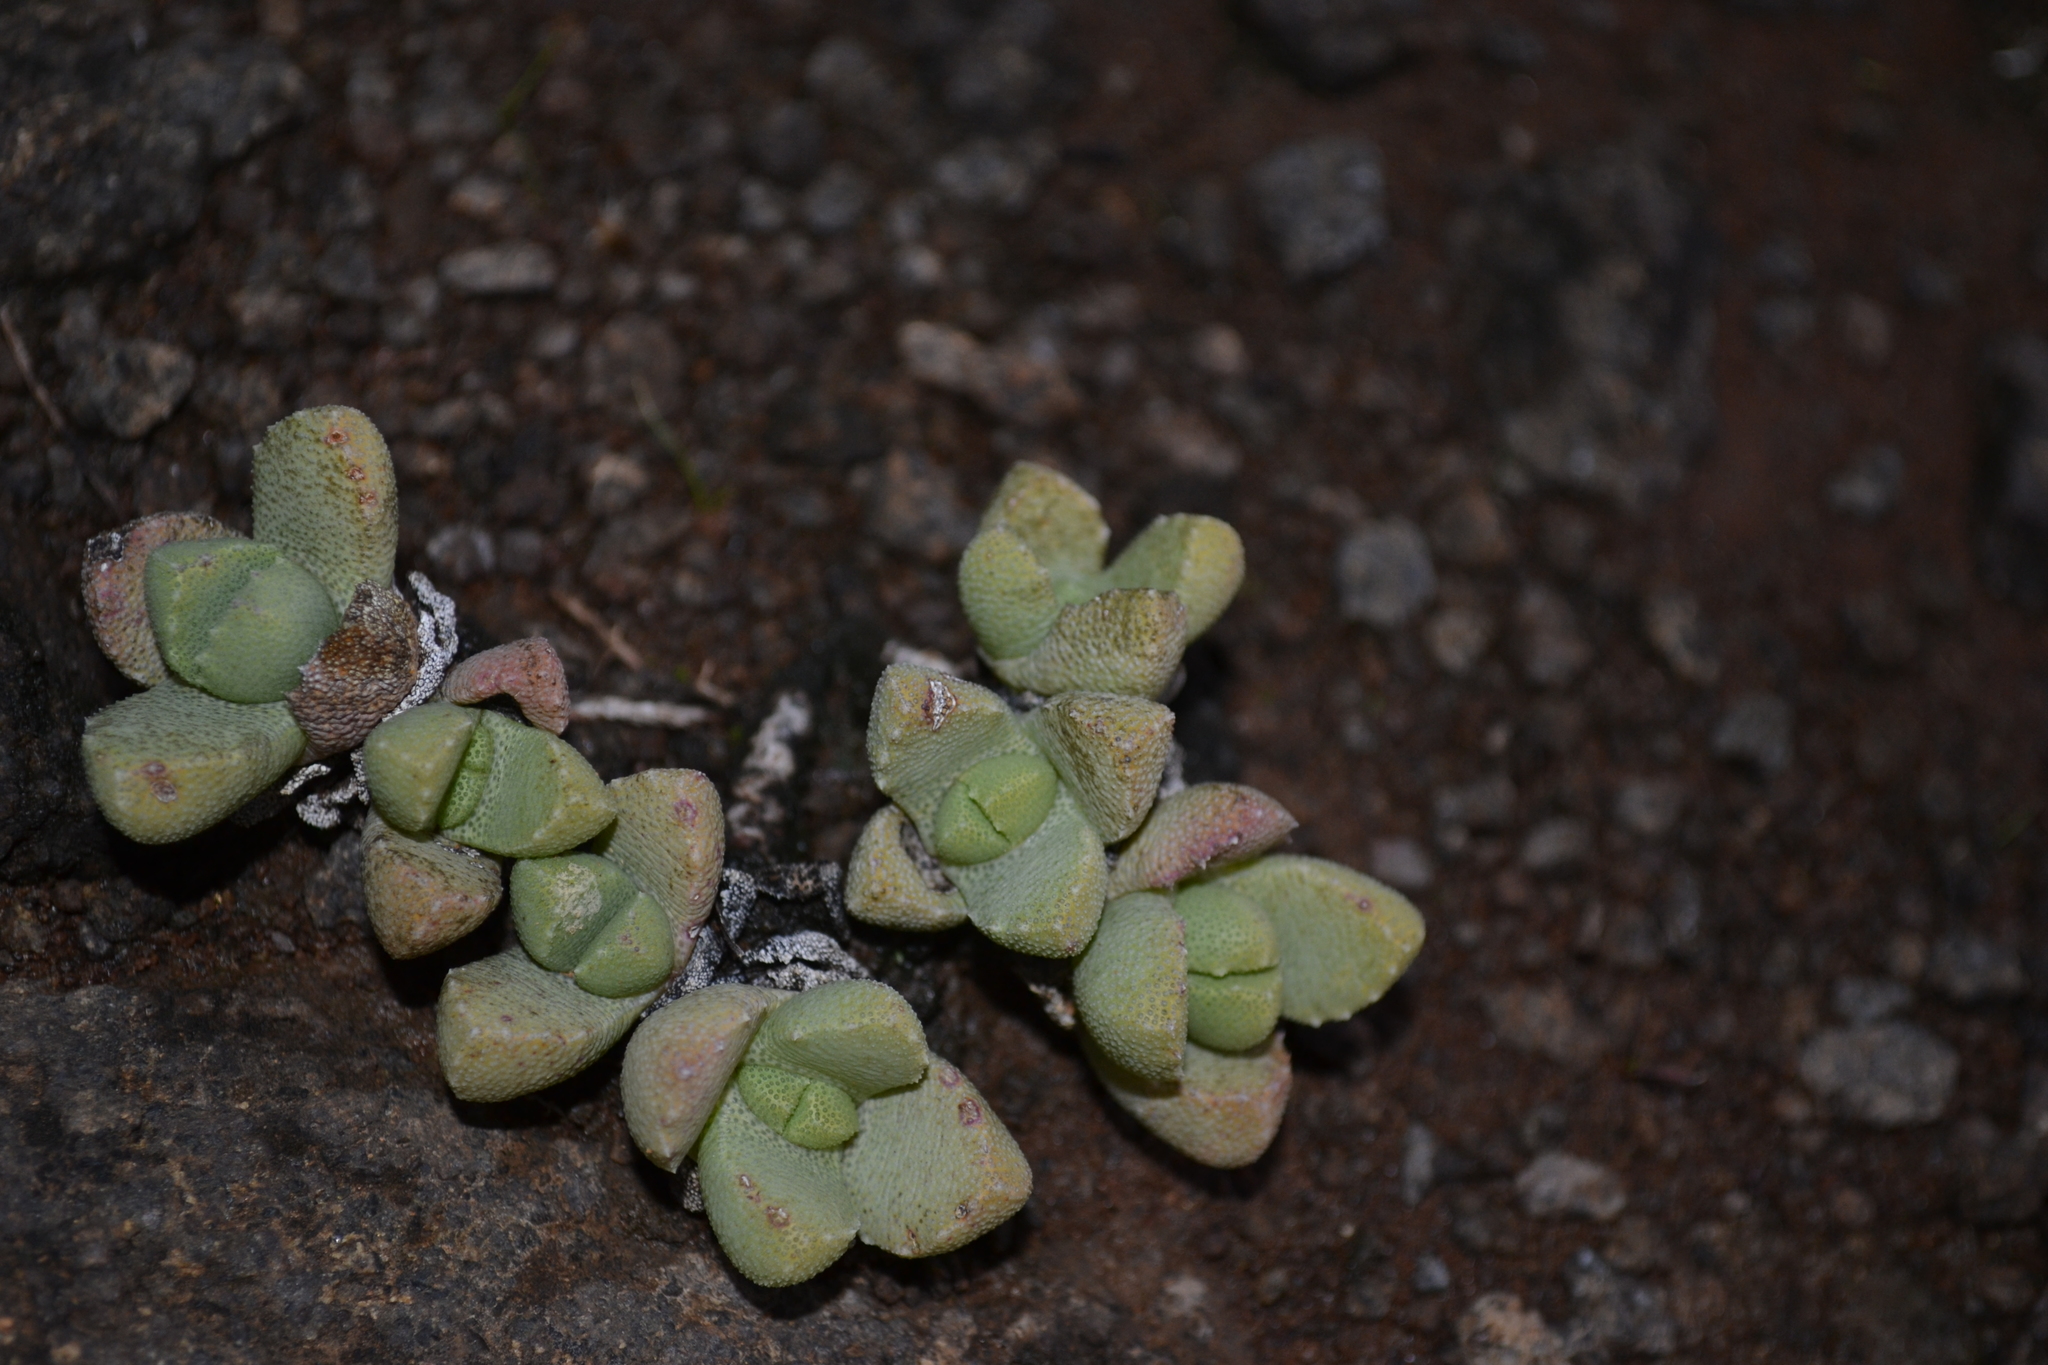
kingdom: Plantae
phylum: Tracheophyta
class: Magnoliopsida
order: Caryophyllales
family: Aizoaceae
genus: Stomatium
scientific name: Stomatium bolusiae
